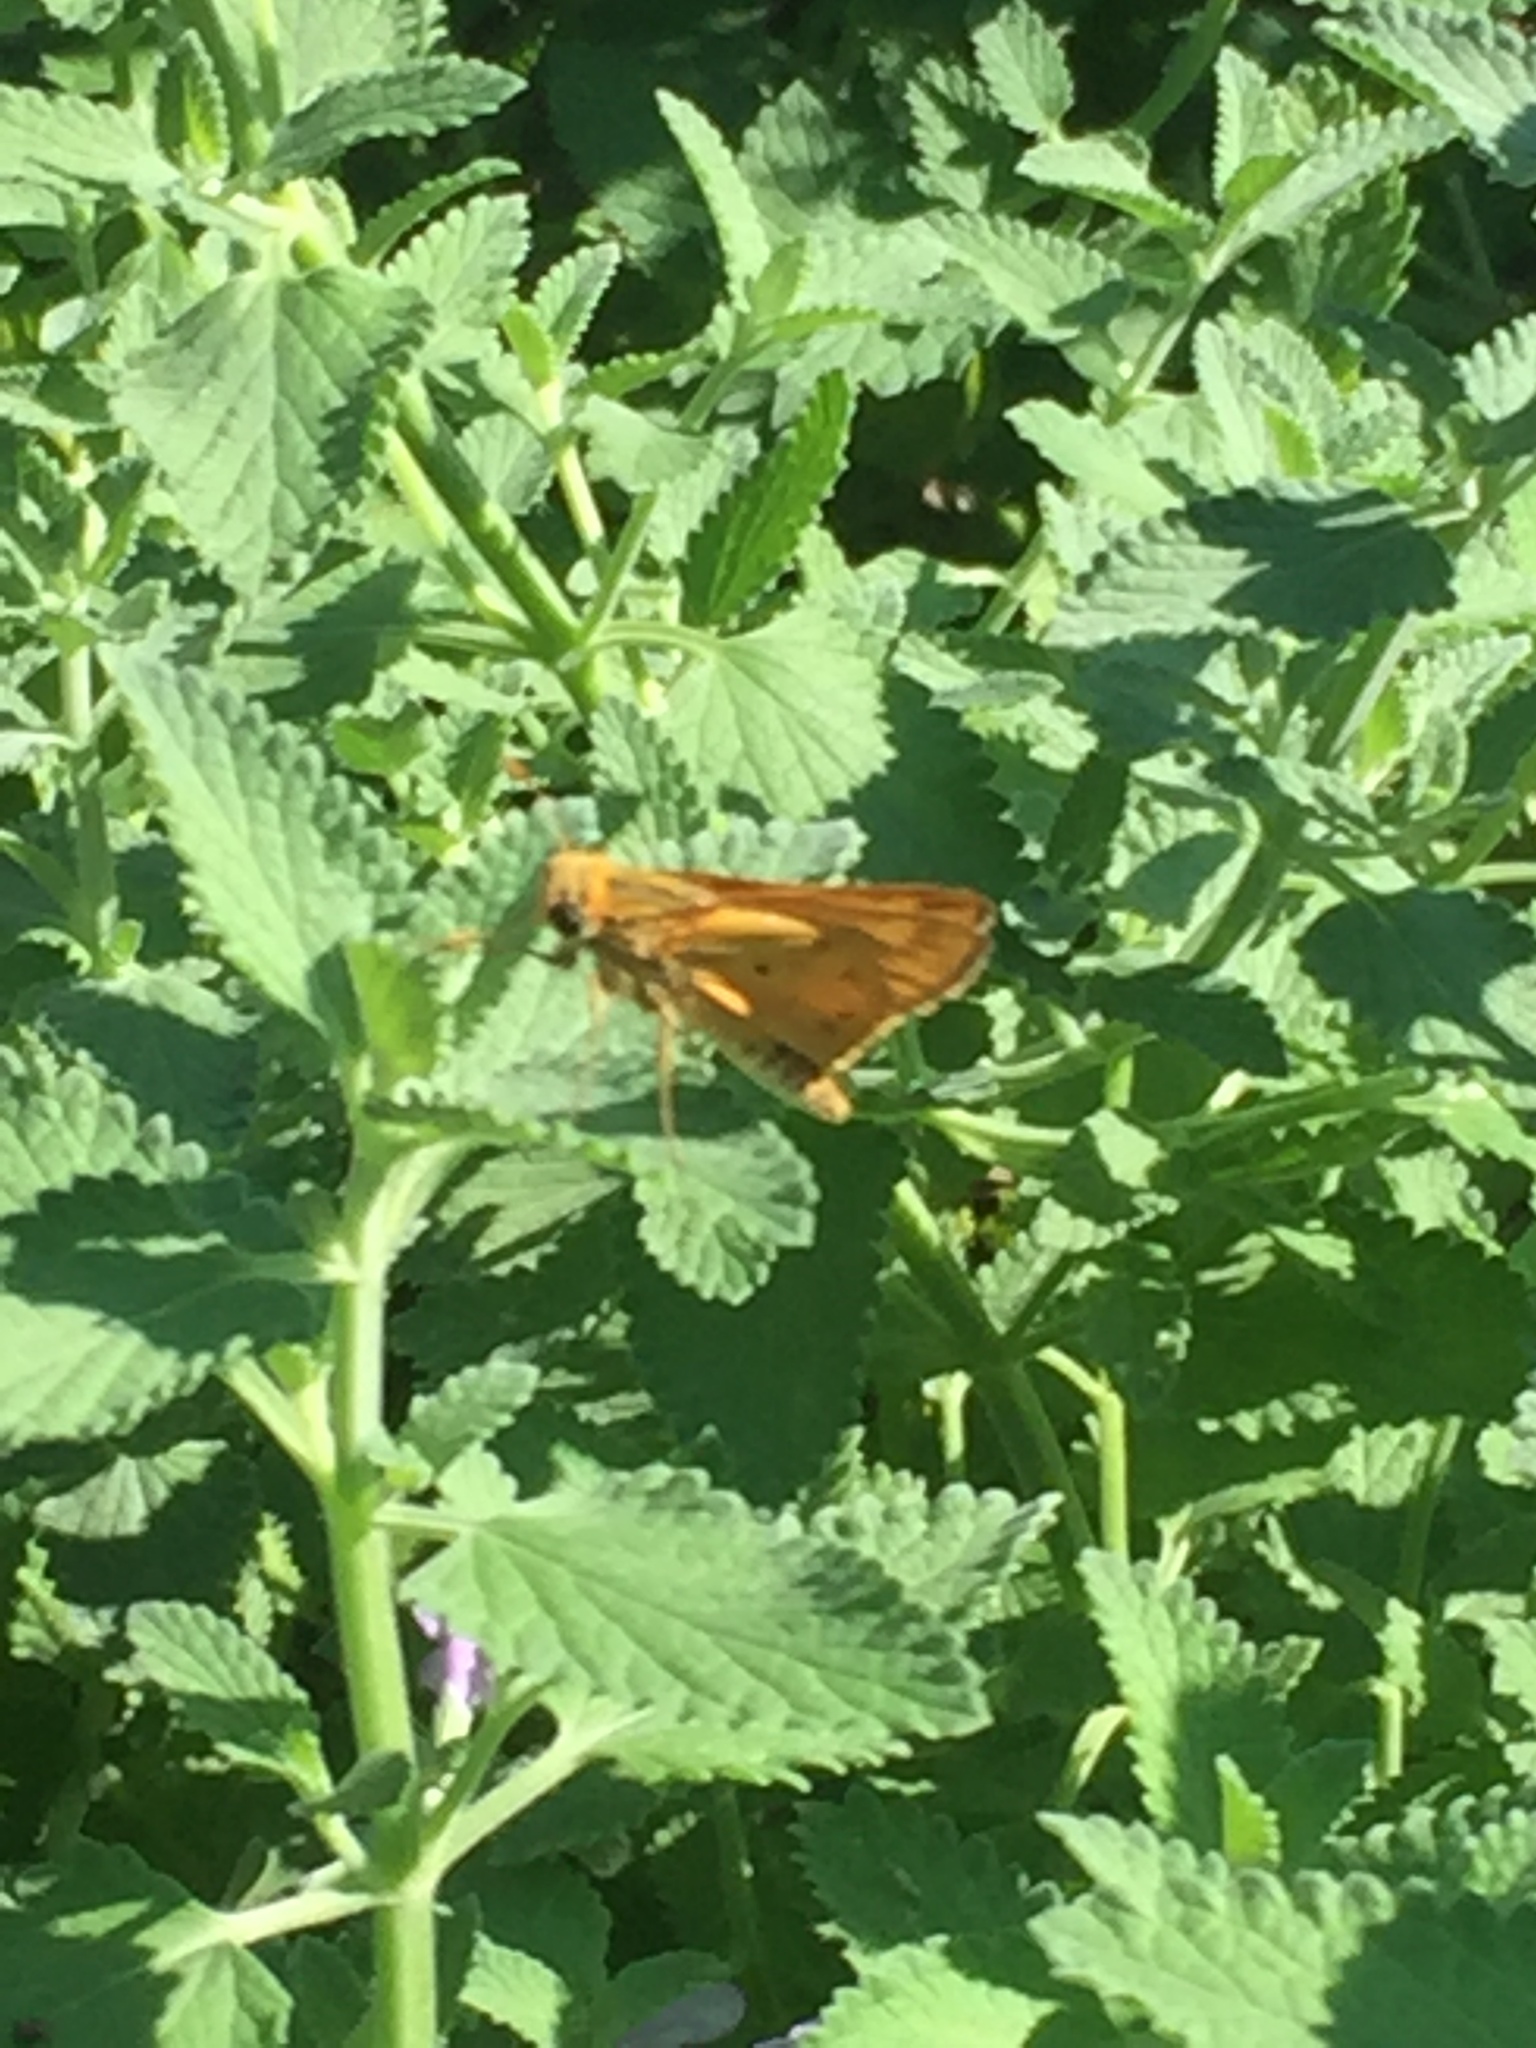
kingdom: Animalia
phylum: Arthropoda
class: Insecta
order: Lepidoptera
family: Hesperiidae
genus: Hylephila
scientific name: Hylephila phyleus
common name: Fiery skipper
